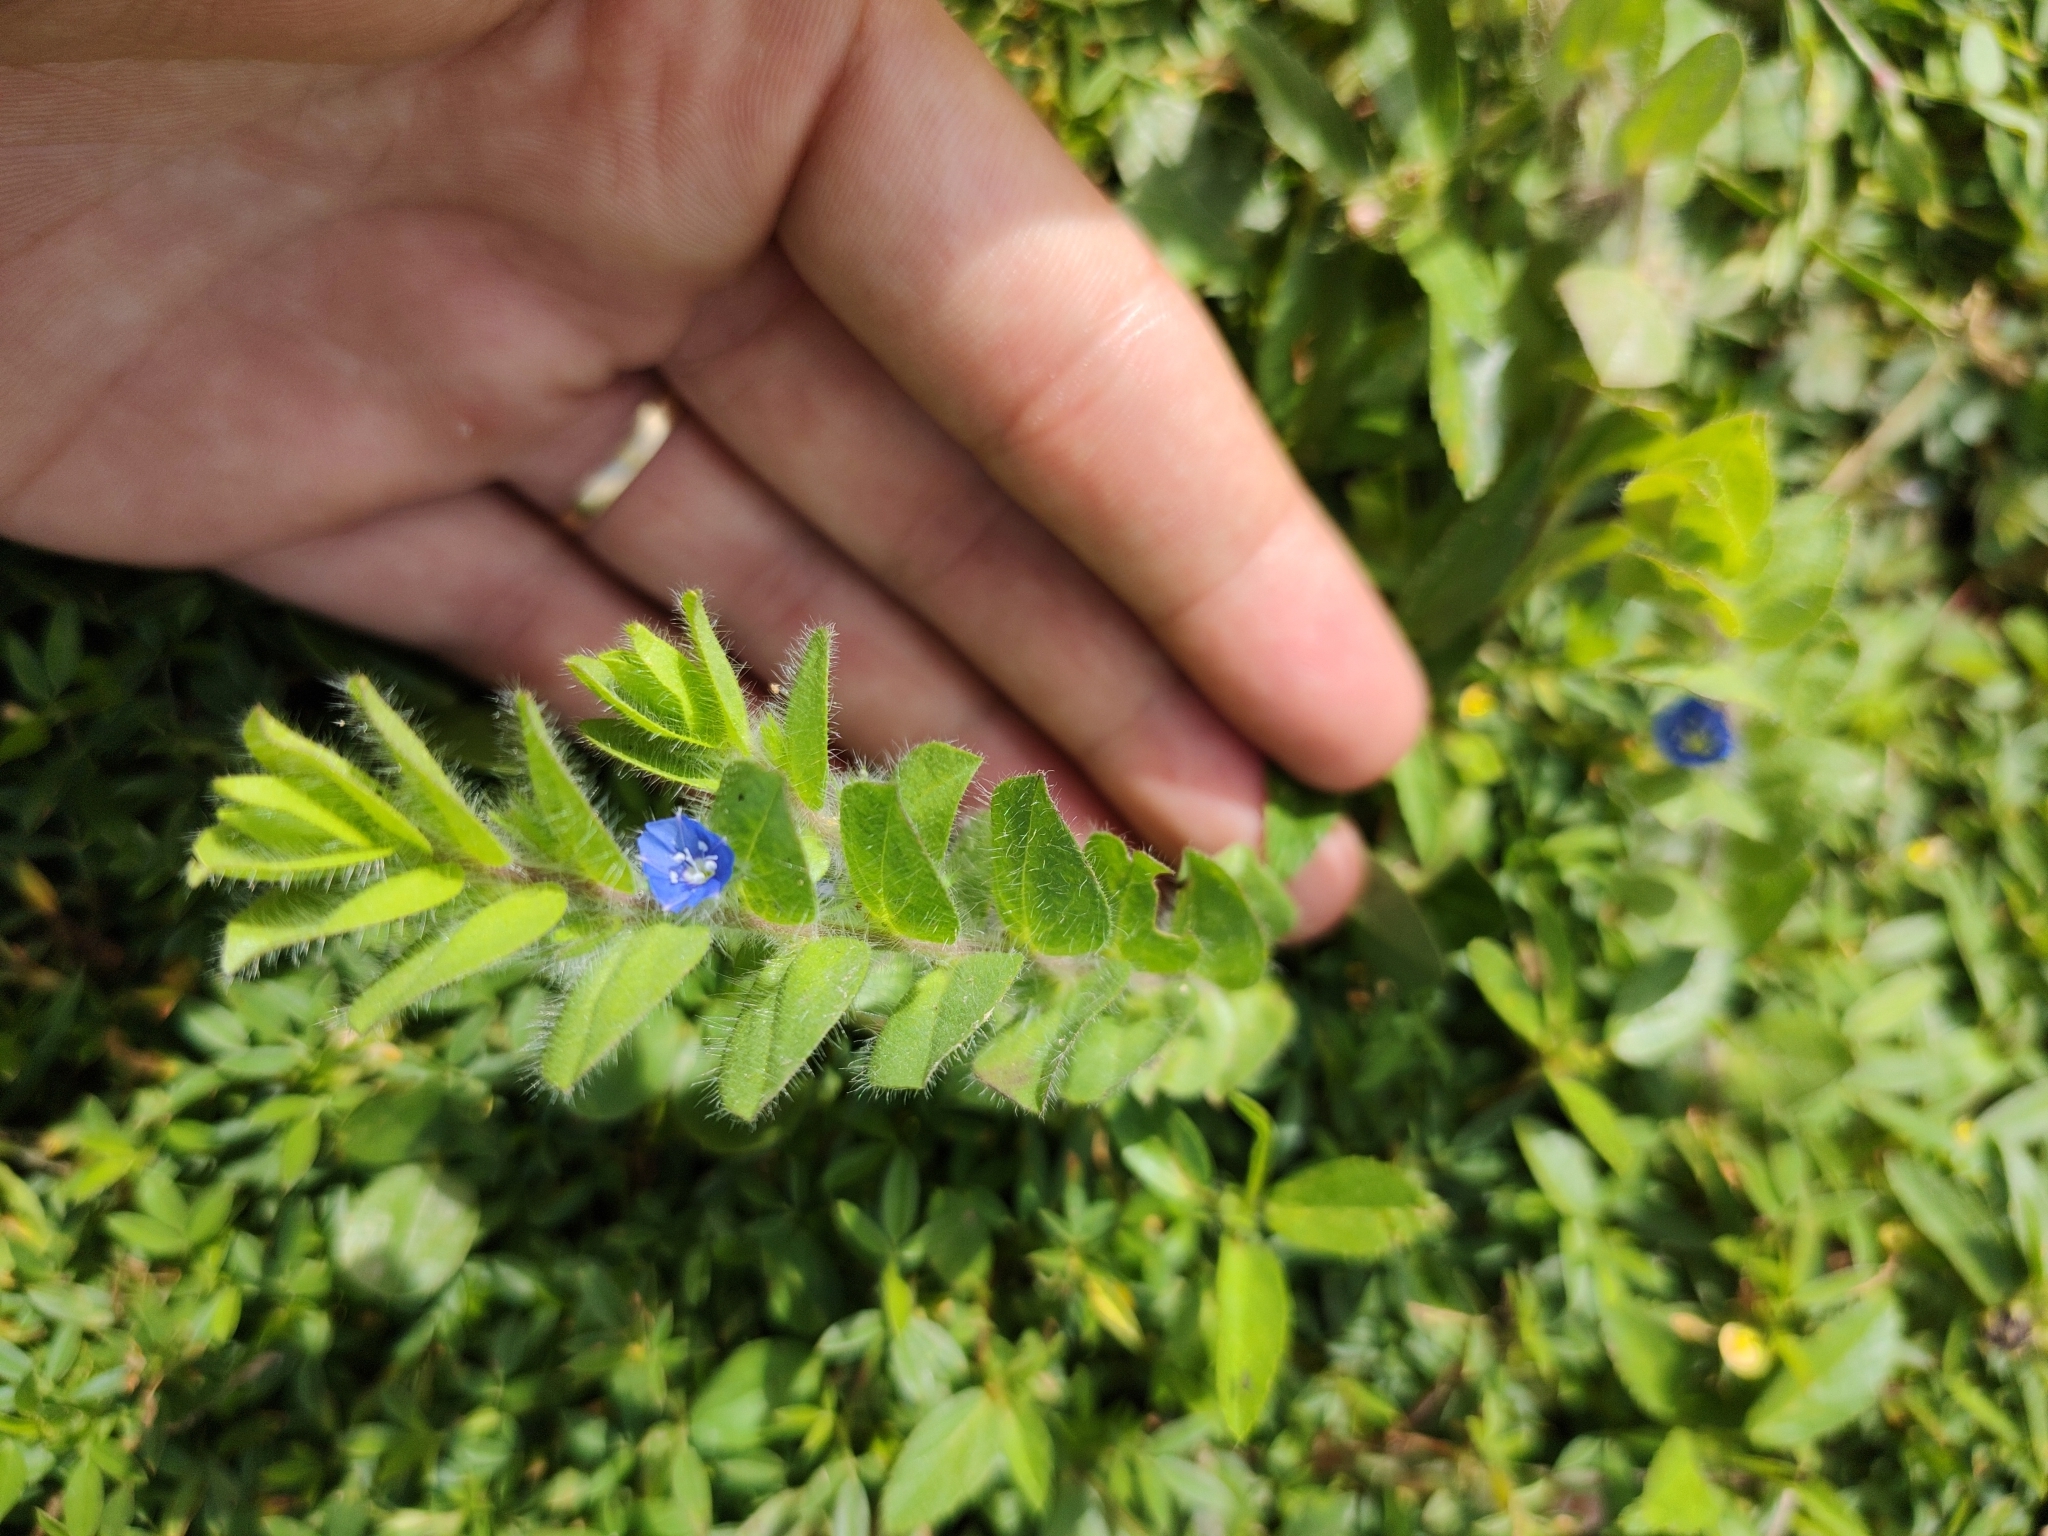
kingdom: Plantae
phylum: Tracheophyta
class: Magnoliopsida
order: Solanales
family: Convolvulaceae
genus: Evolvulus
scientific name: Evolvulus ovatus
